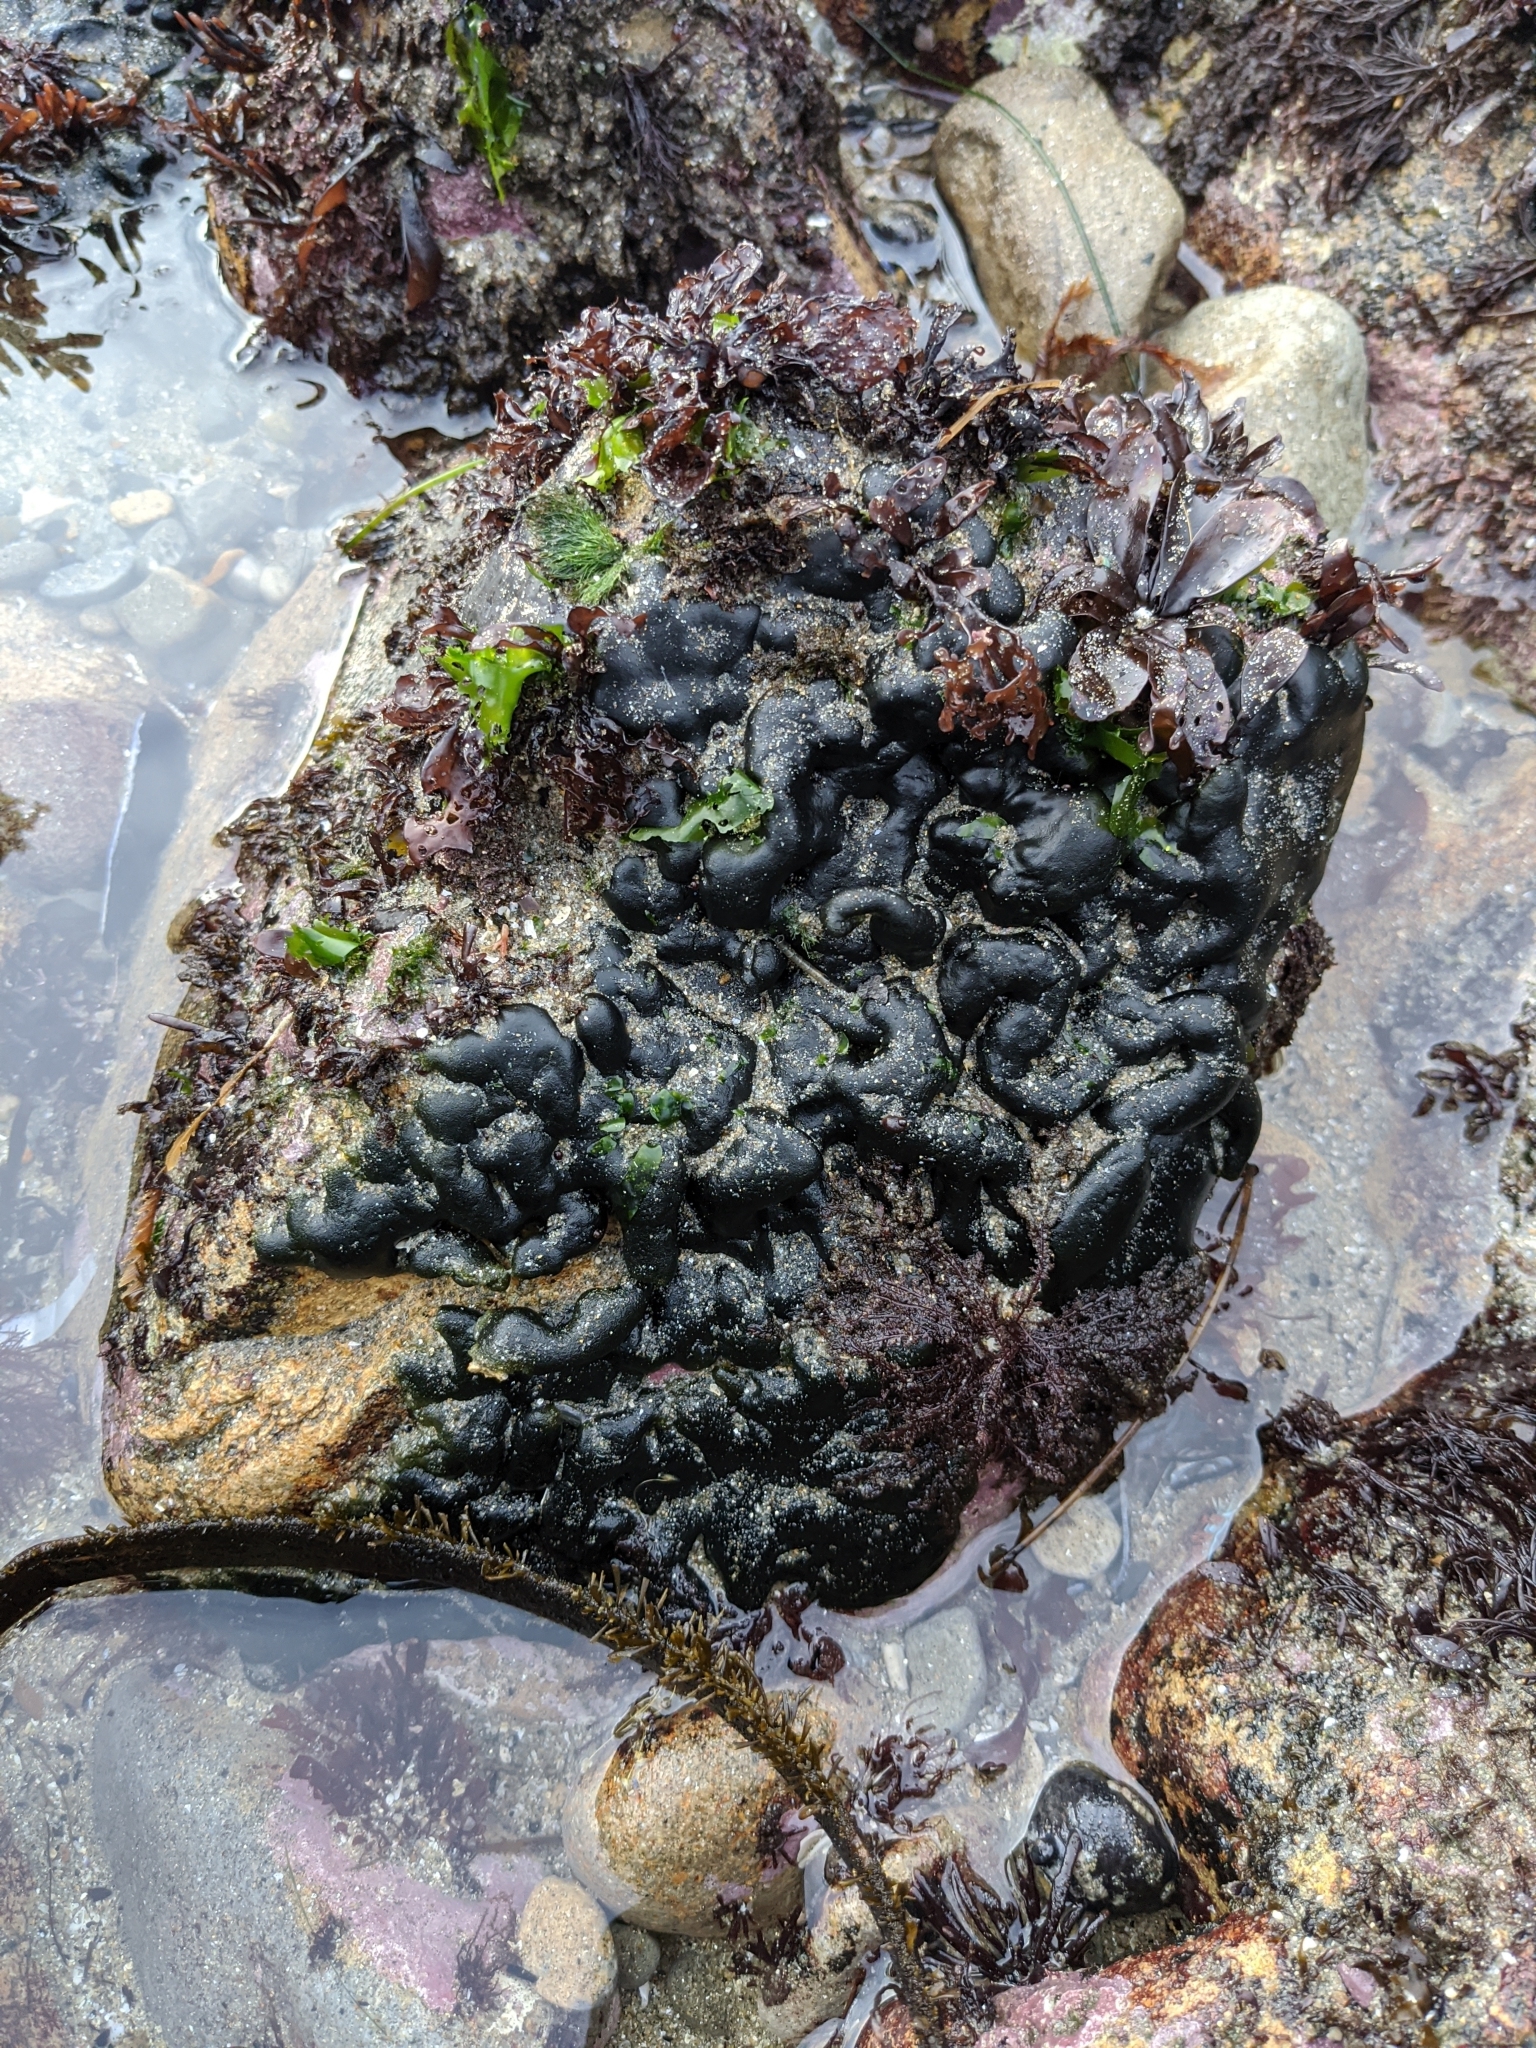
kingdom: Plantae
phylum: Chlorophyta
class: Ulvophyceae
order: Bryopsidales
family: Codiaceae
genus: Codium
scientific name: Codium setchellii
